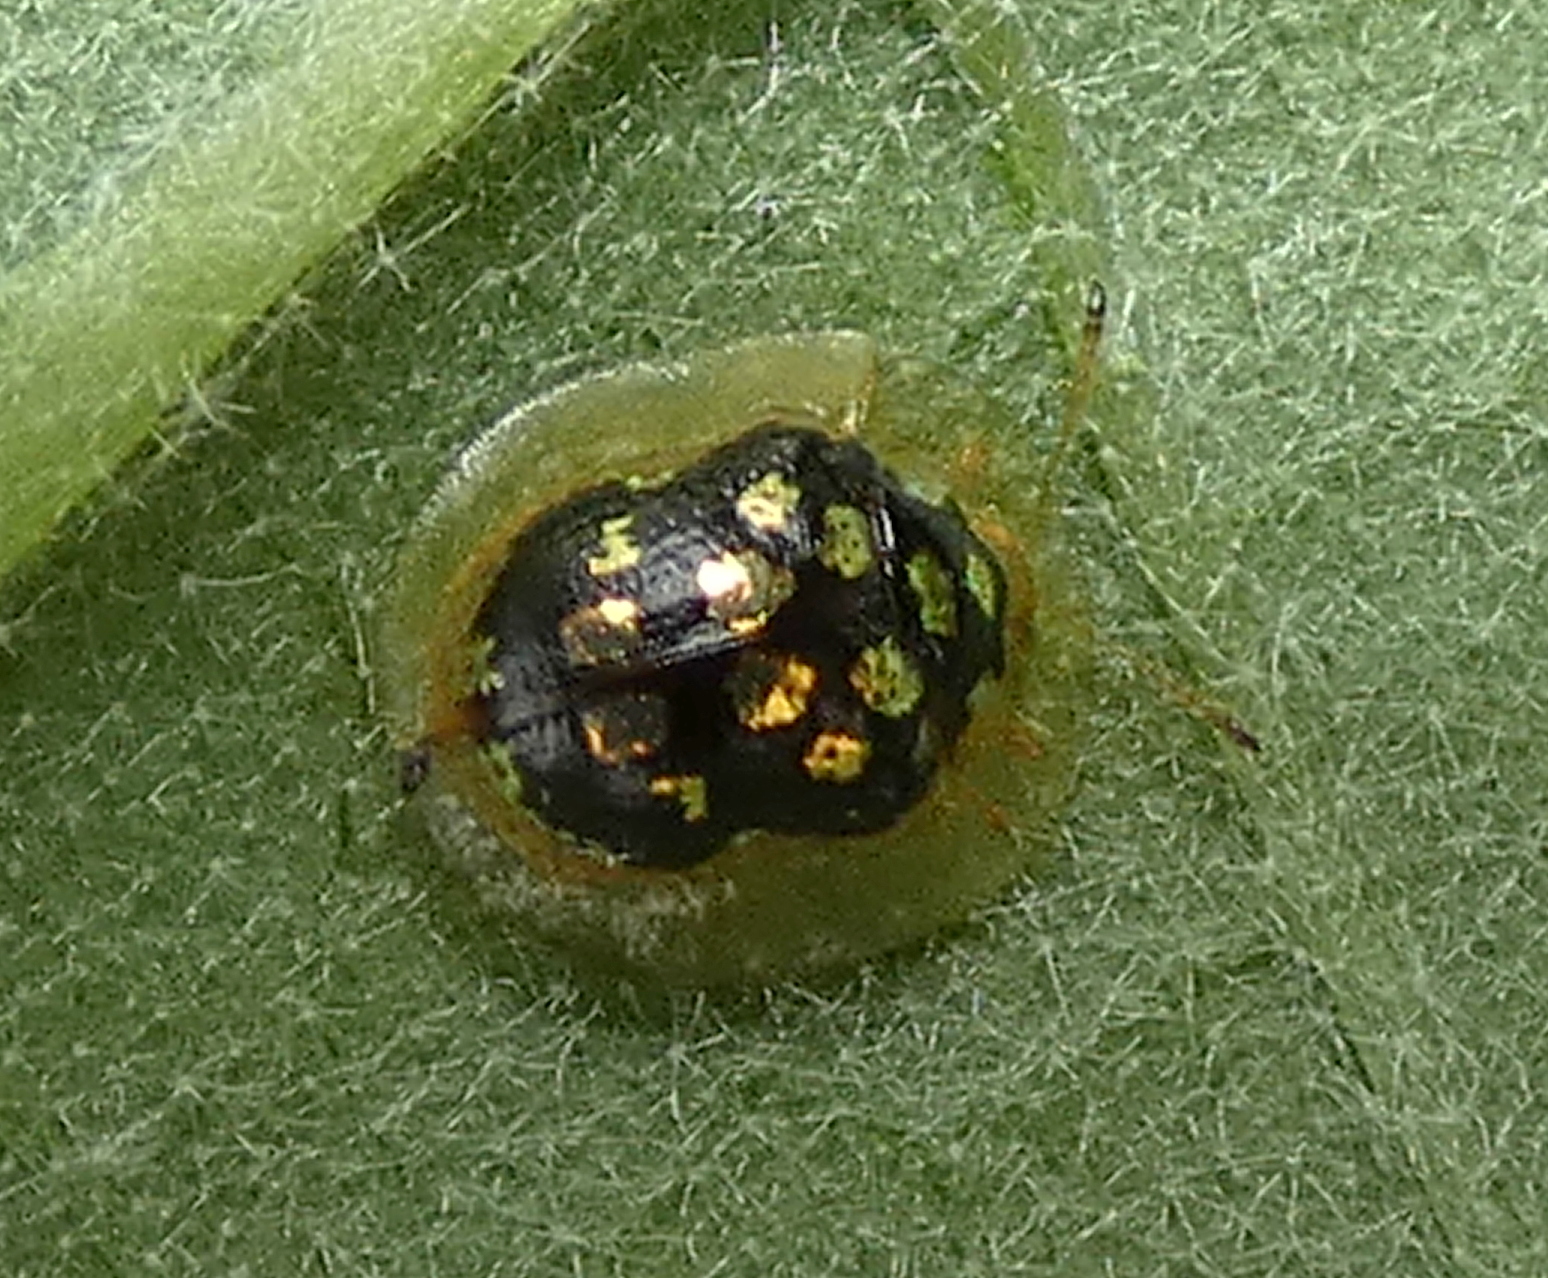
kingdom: Animalia
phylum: Arthropoda
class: Insecta
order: Coleoptera
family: Chrysomelidae
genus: Plagiometriona
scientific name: Plagiometriona microcera
